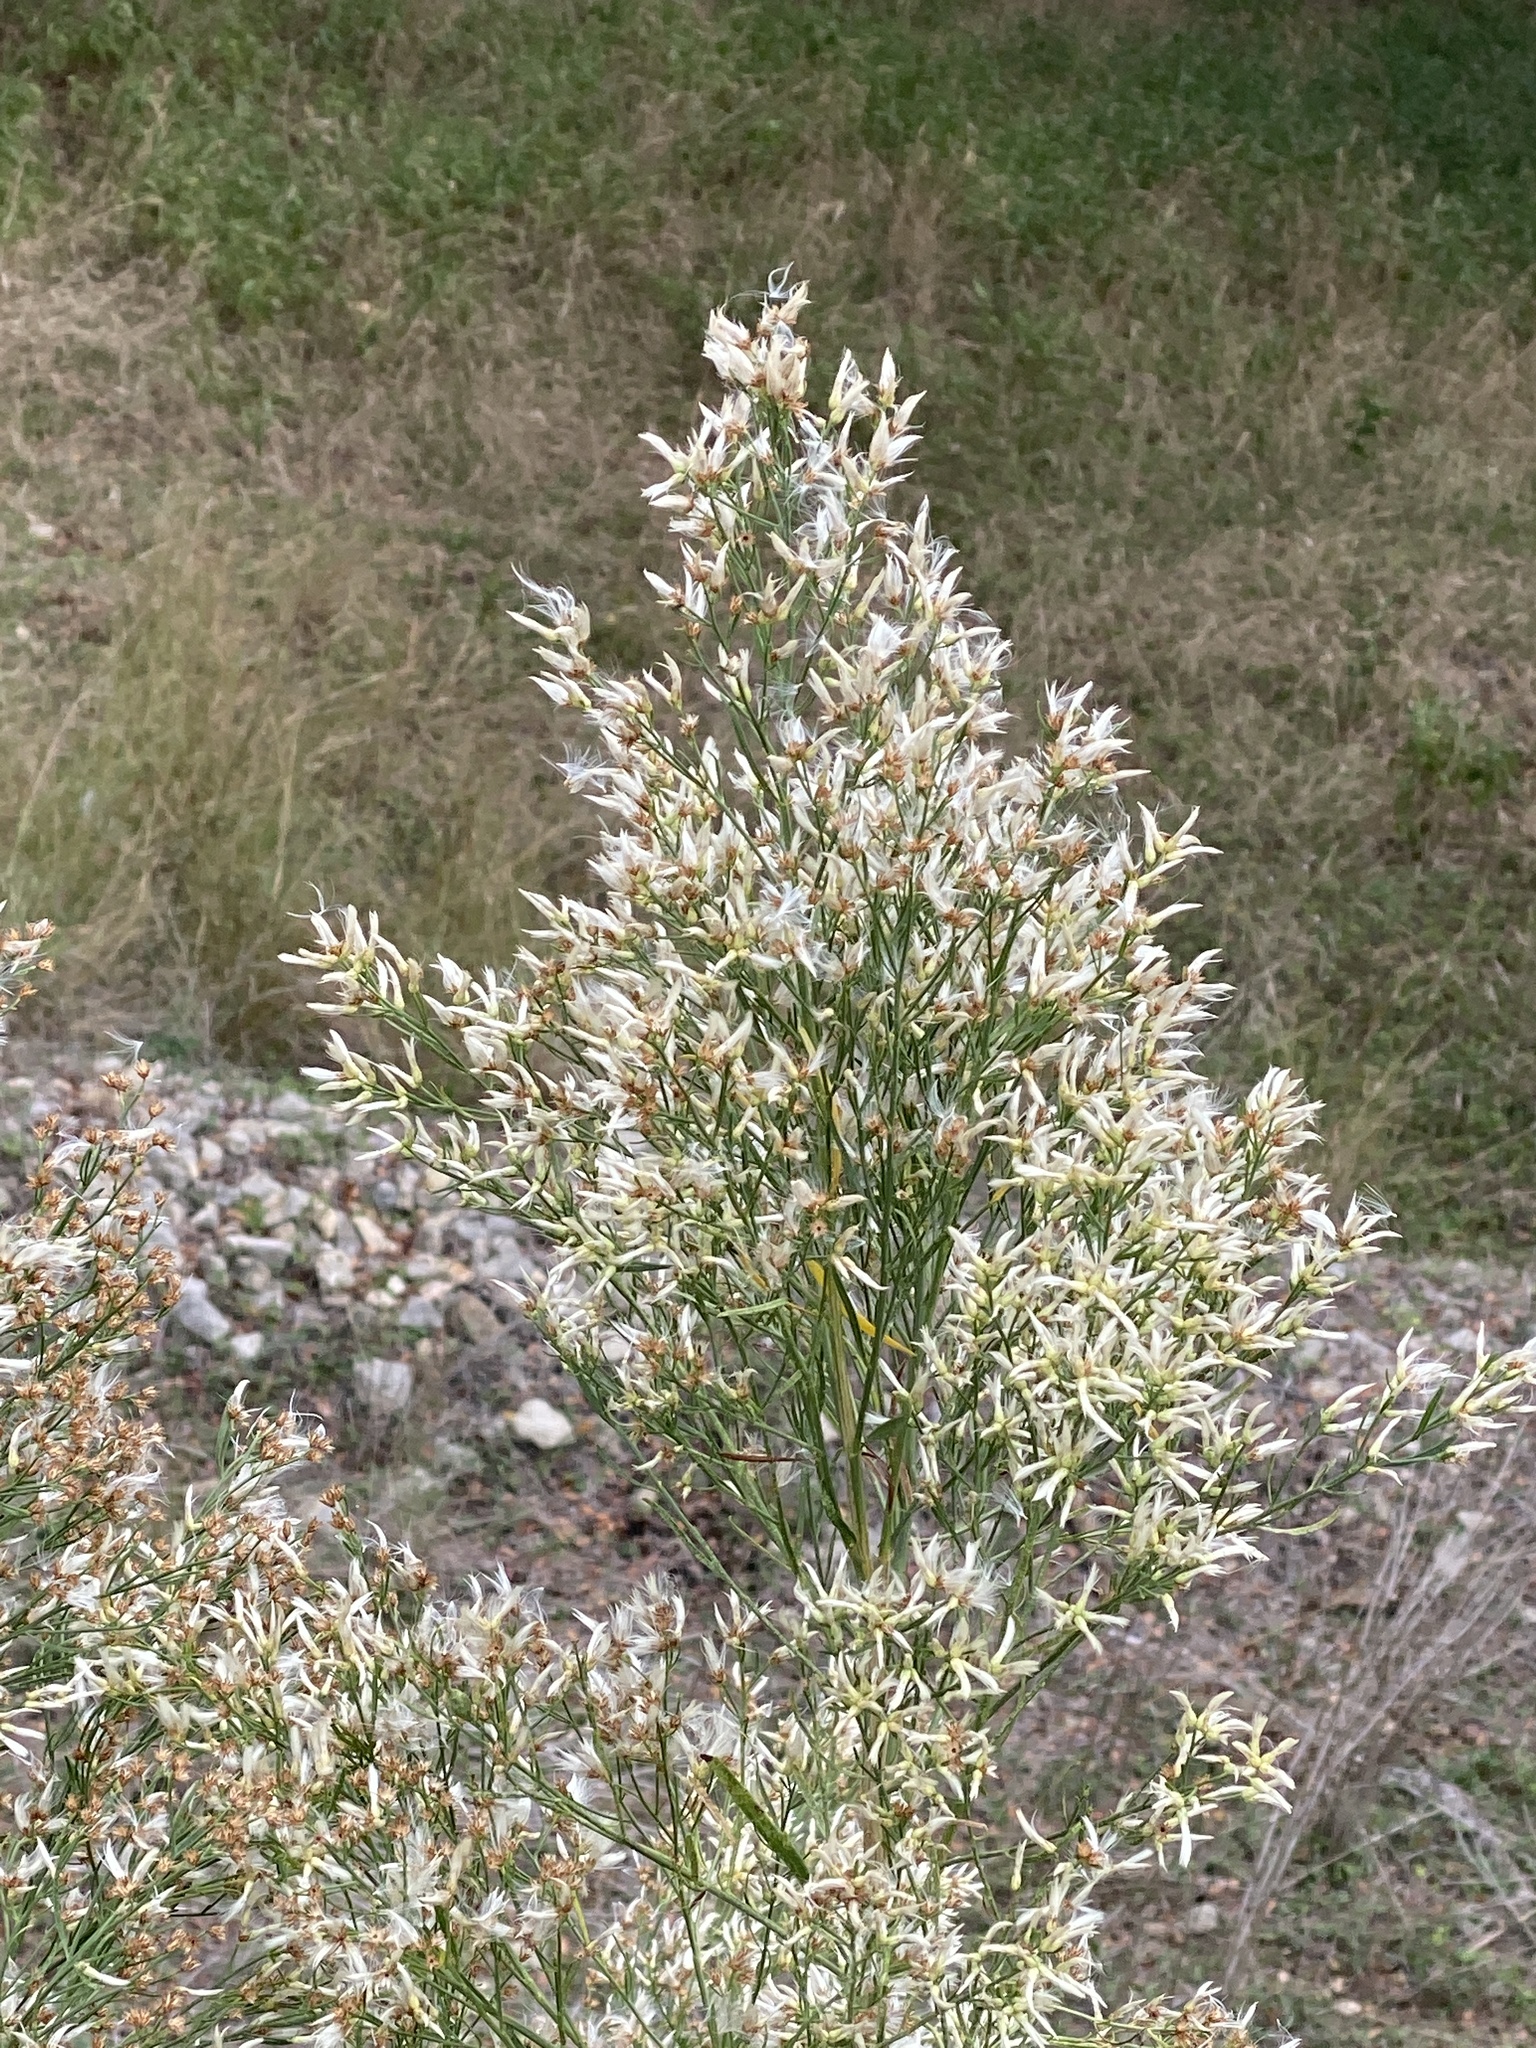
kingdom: Plantae
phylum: Tracheophyta
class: Magnoliopsida
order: Asterales
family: Asteraceae
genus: Baccharis
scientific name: Baccharis neglecta
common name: Roosevelt-weed
